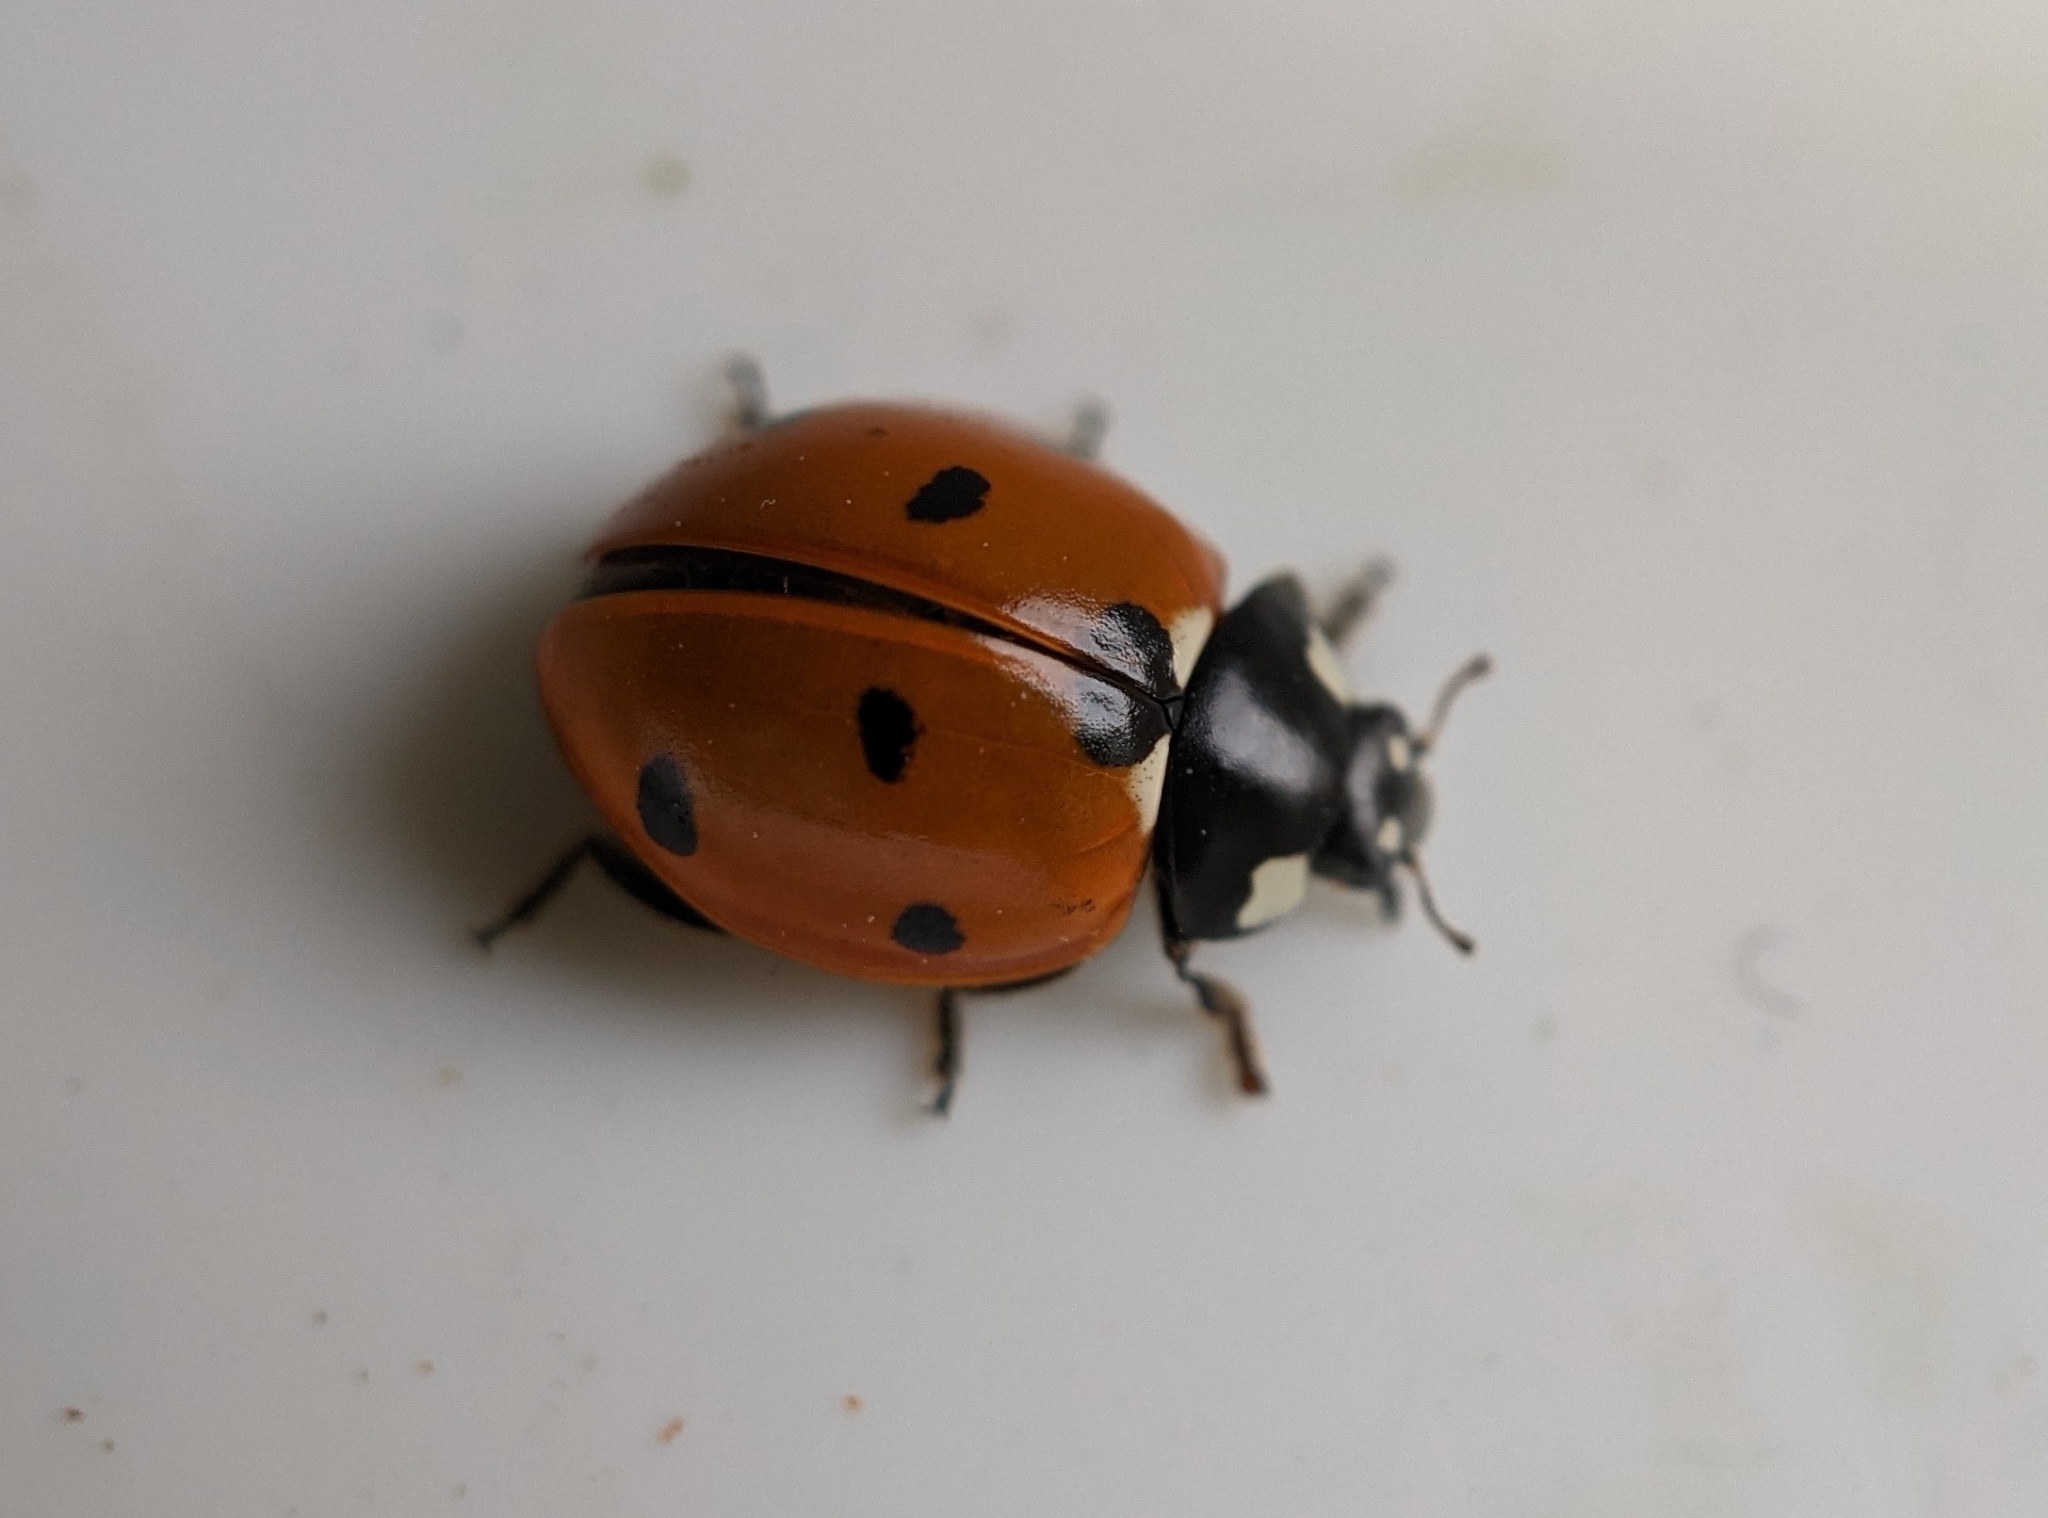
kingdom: Animalia
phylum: Arthropoda
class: Insecta
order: Coleoptera
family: Coccinellidae
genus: Coccinella
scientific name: Coccinella septempunctata
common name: Sevenspotted lady beetle
